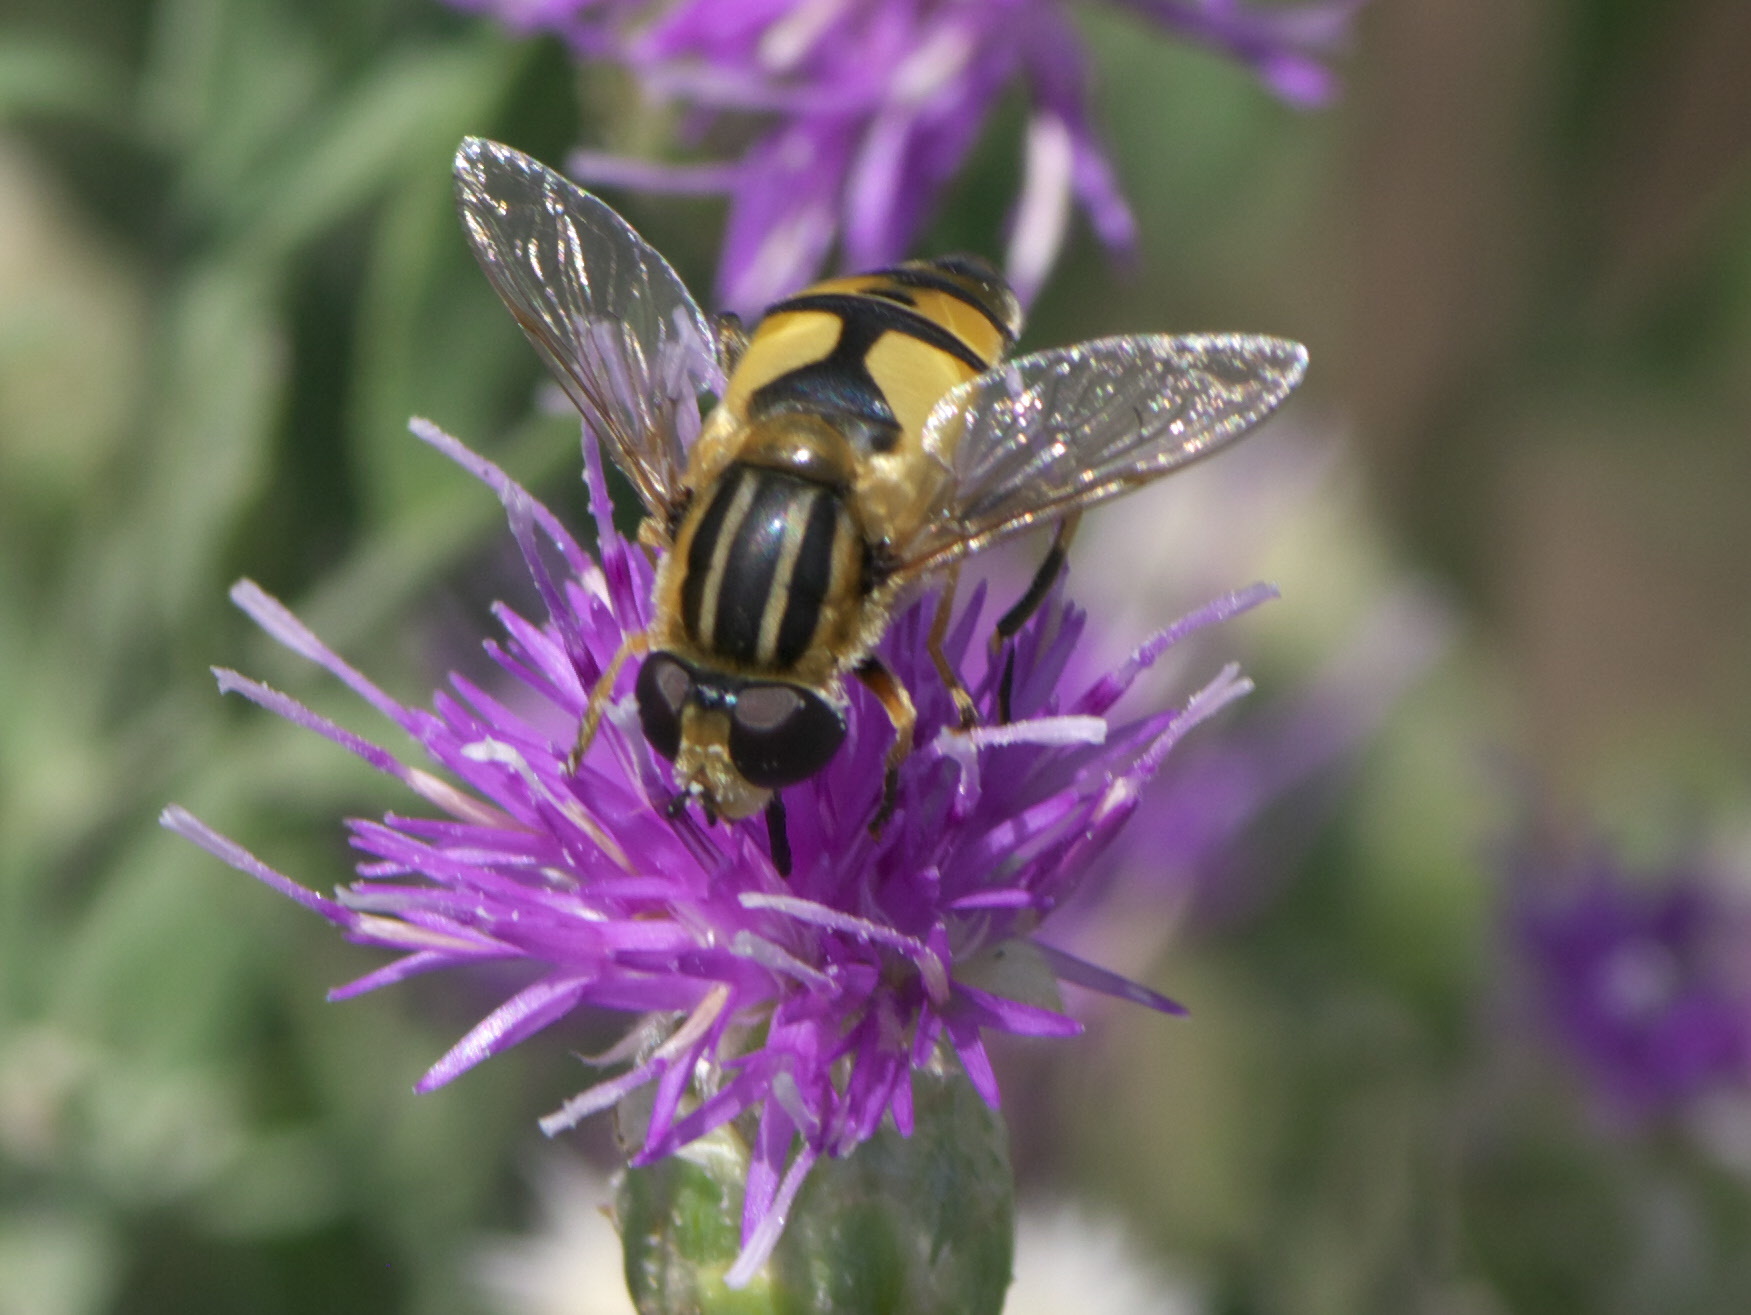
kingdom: Animalia
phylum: Arthropoda
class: Insecta
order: Diptera
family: Syrphidae
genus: Helophilus
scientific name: Helophilus latifrons
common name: Broad-headed marsh fly
